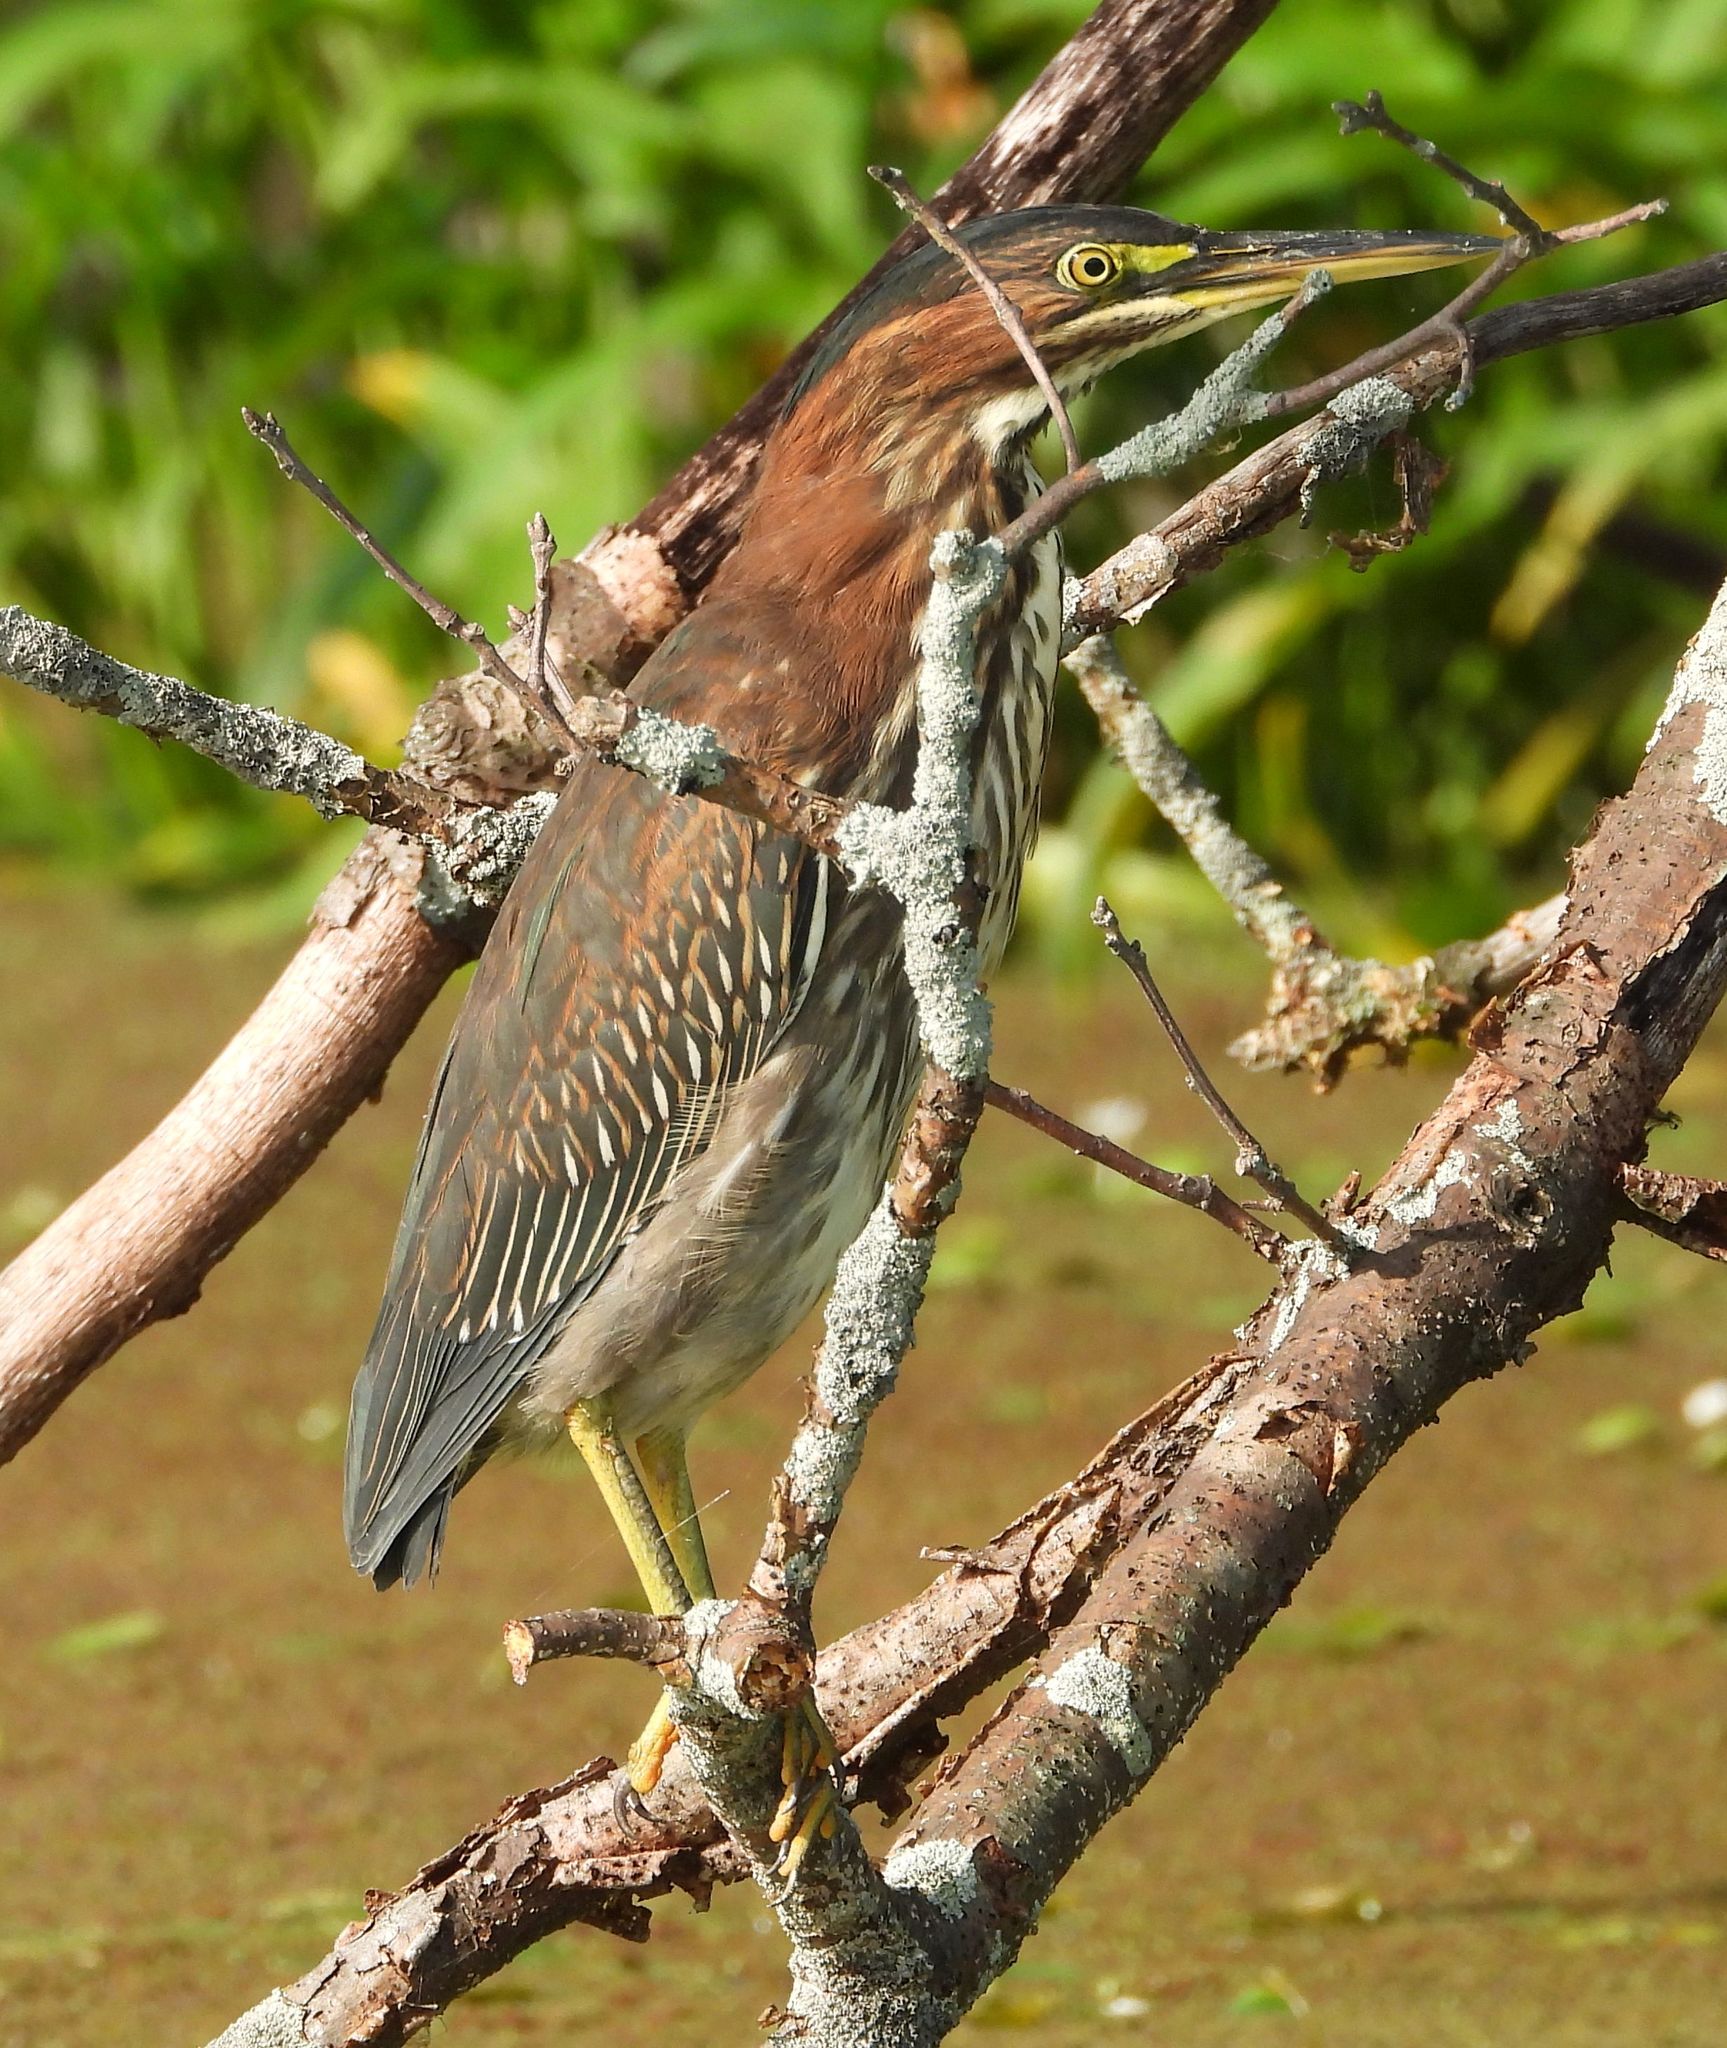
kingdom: Animalia
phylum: Chordata
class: Aves
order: Pelecaniformes
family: Ardeidae
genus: Butorides
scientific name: Butorides virescens
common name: Green heron
